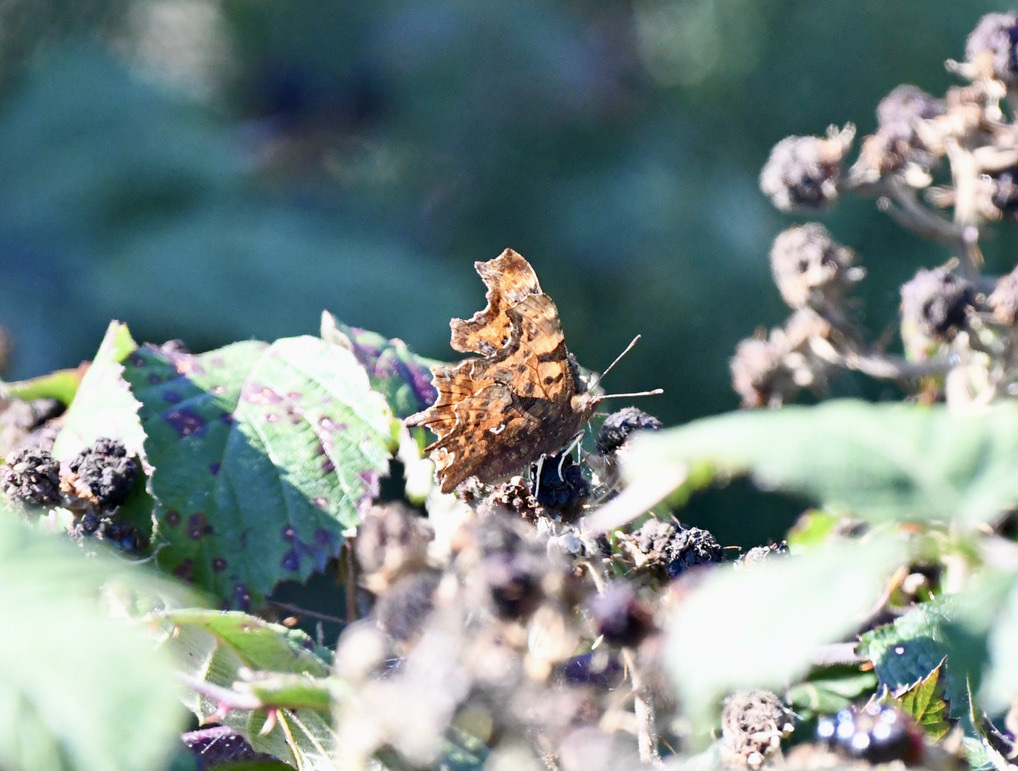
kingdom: Animalia
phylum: Arthropoda
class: Insecta
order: Lepidoptera
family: Nymphalidae
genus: Polygonia
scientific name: Polygonia c-album
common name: Comma
